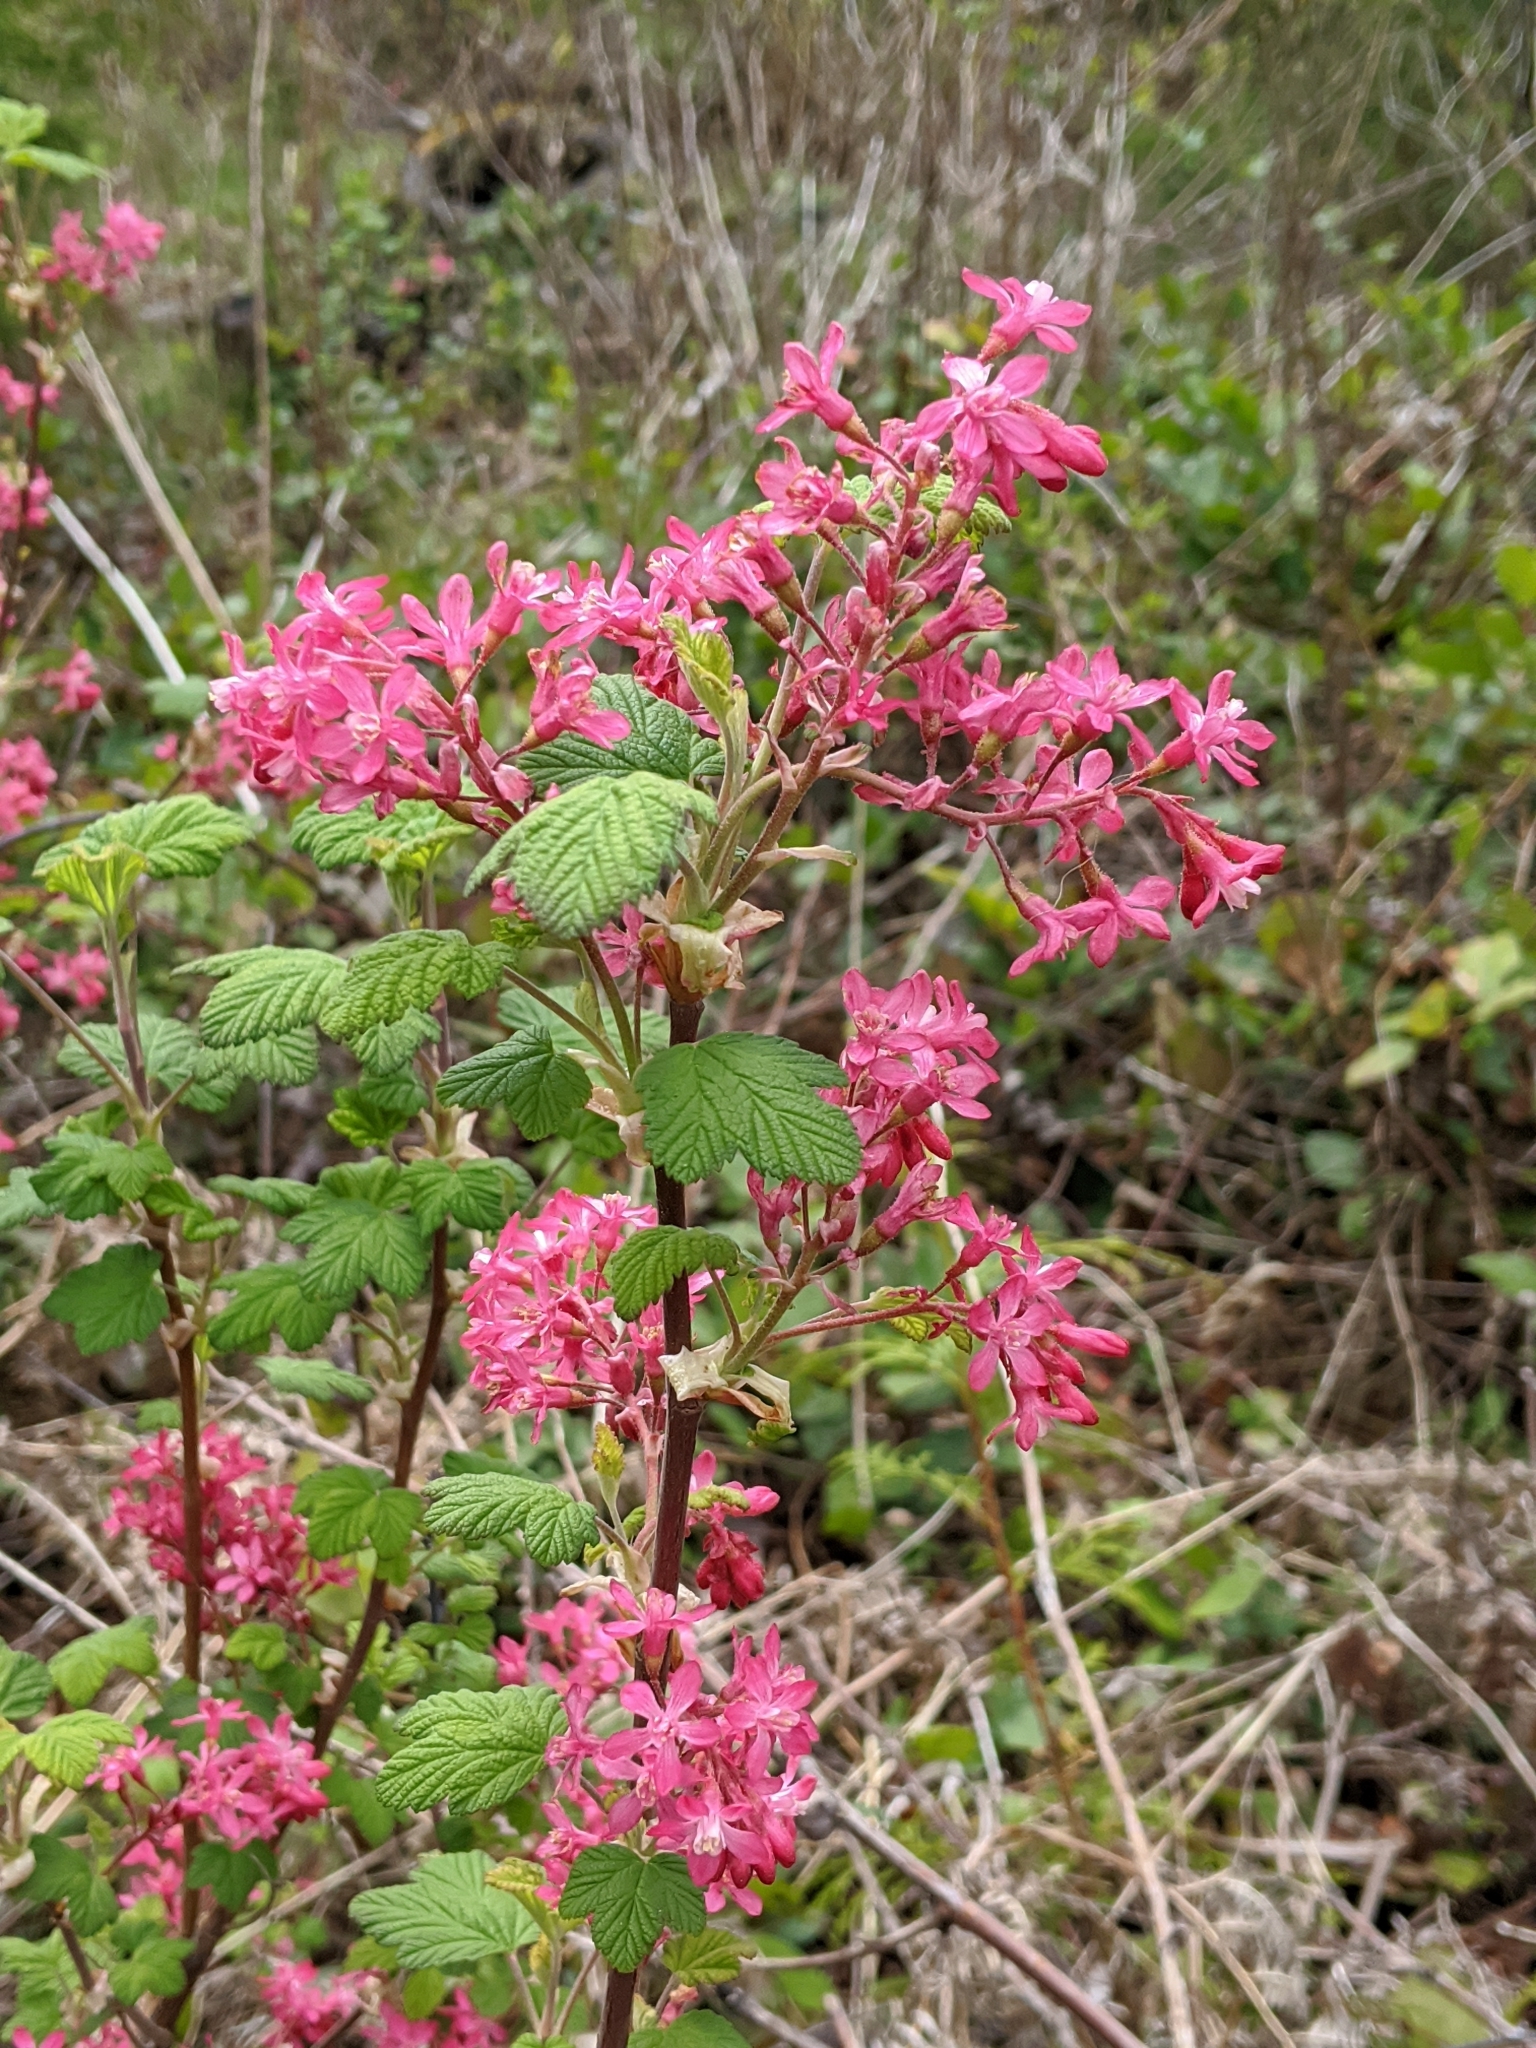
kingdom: Plantae
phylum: Tracheophyta
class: Magnoliopsida
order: Saxifragales
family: Grossulariaceae
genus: Ribes
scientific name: Ribes sanguineum
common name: Flowering currant
